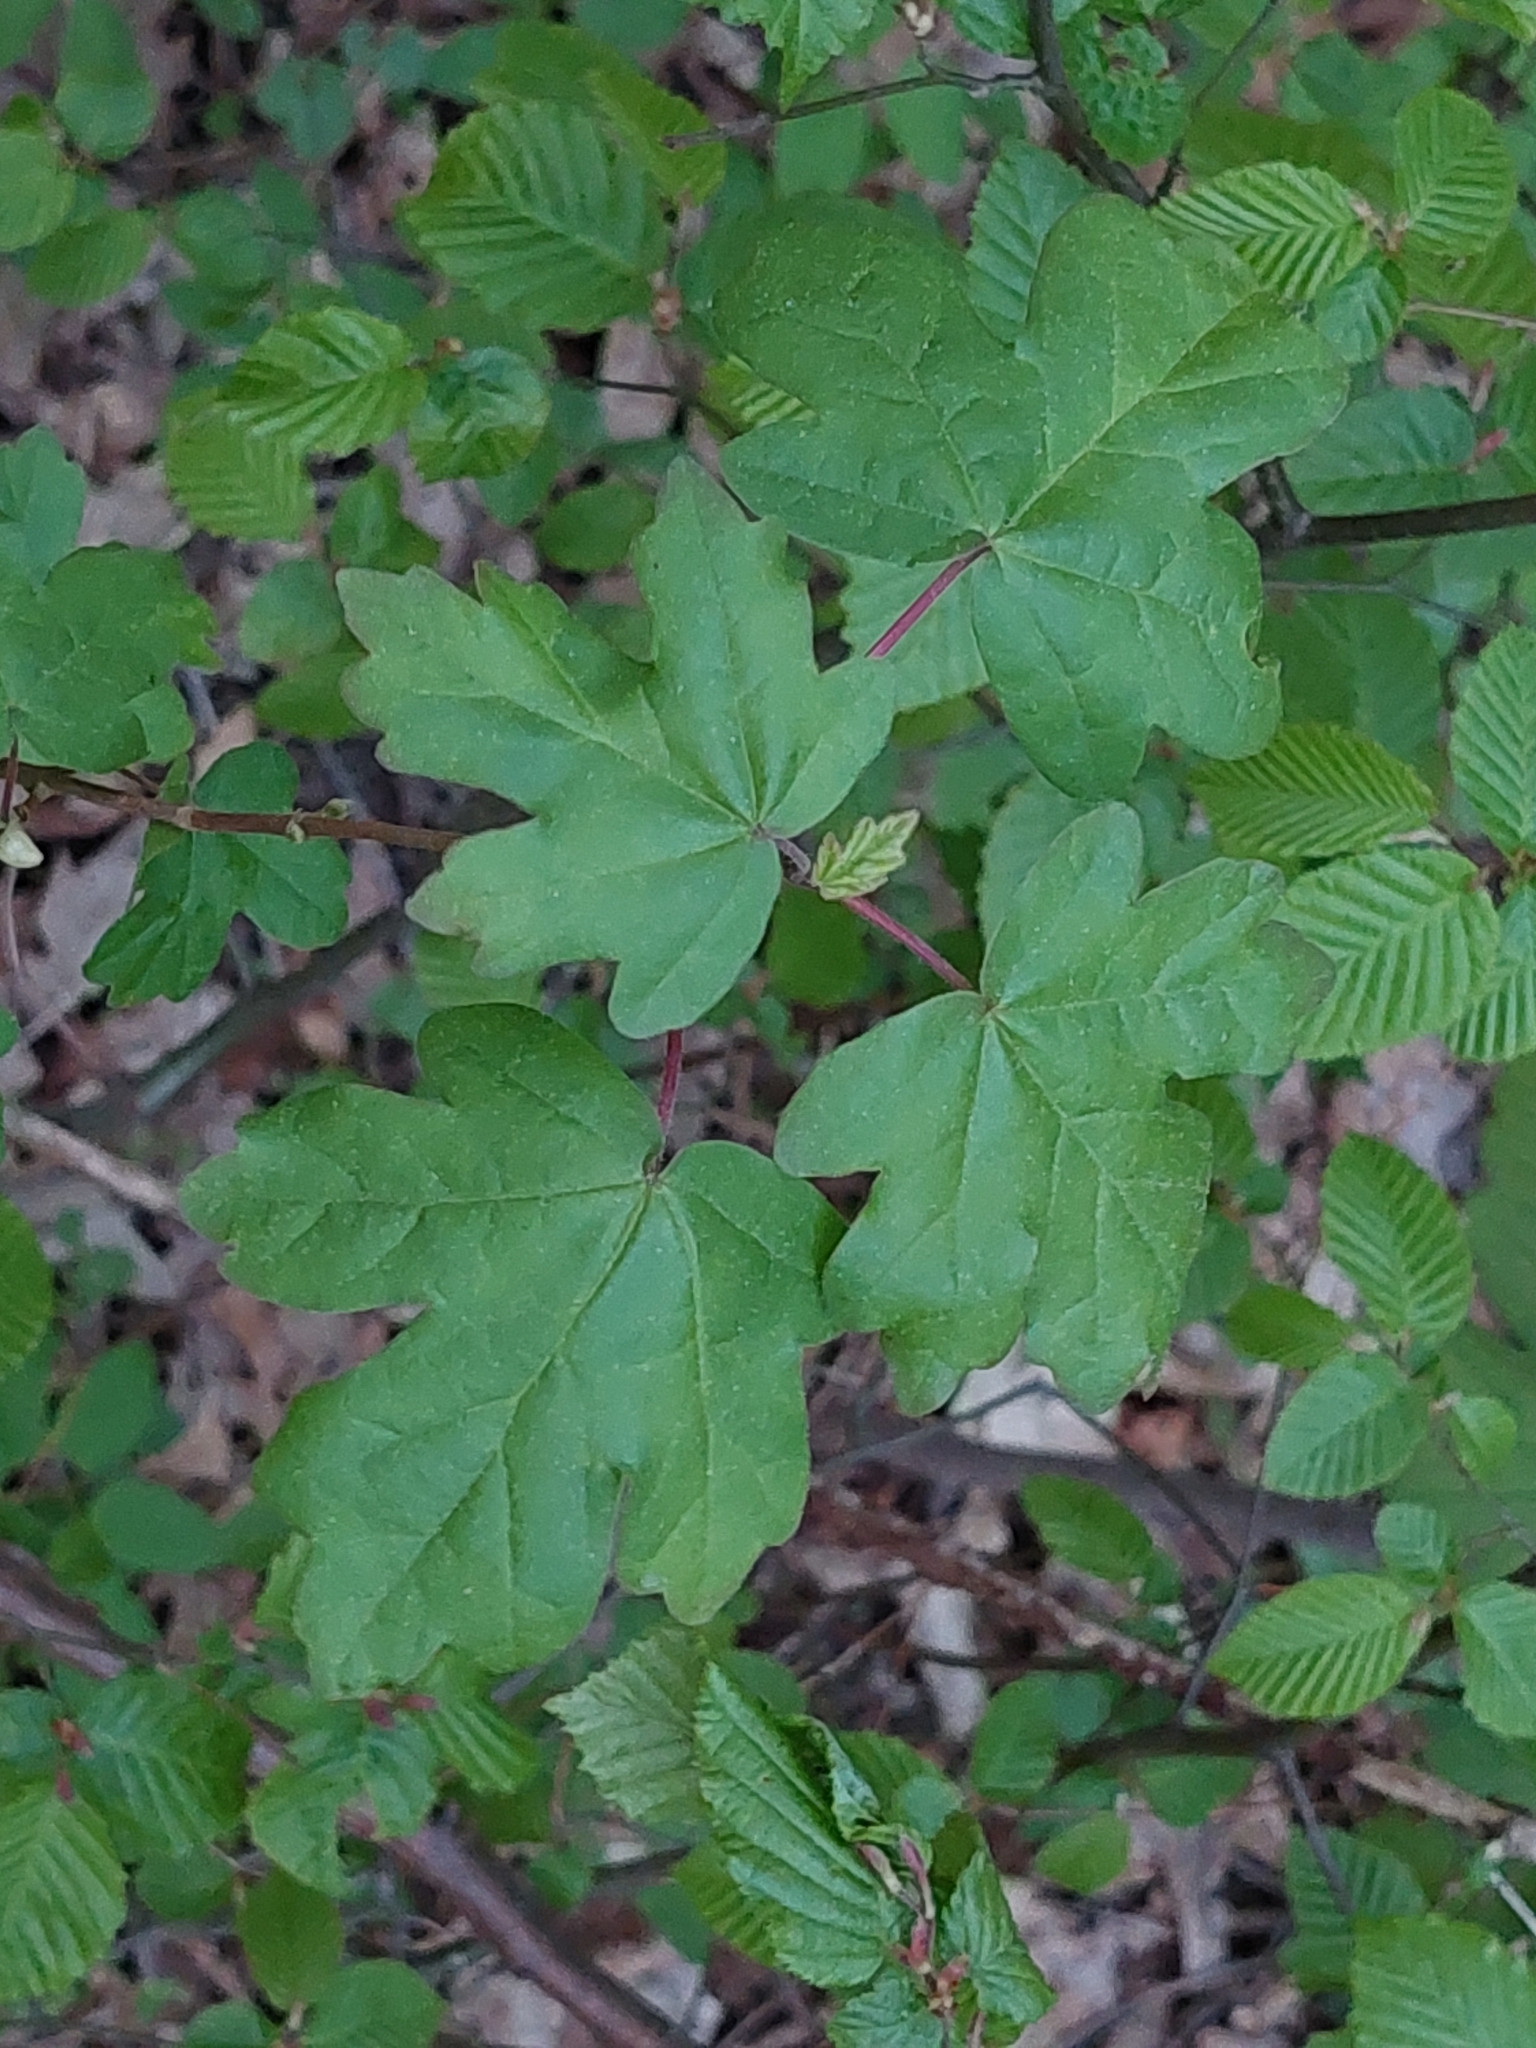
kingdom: Plantae
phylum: Tracheophyta
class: Magnoliopsida
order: Sapindales
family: Sapindaceae
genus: Acer
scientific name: Acer campestre
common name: Field maple
